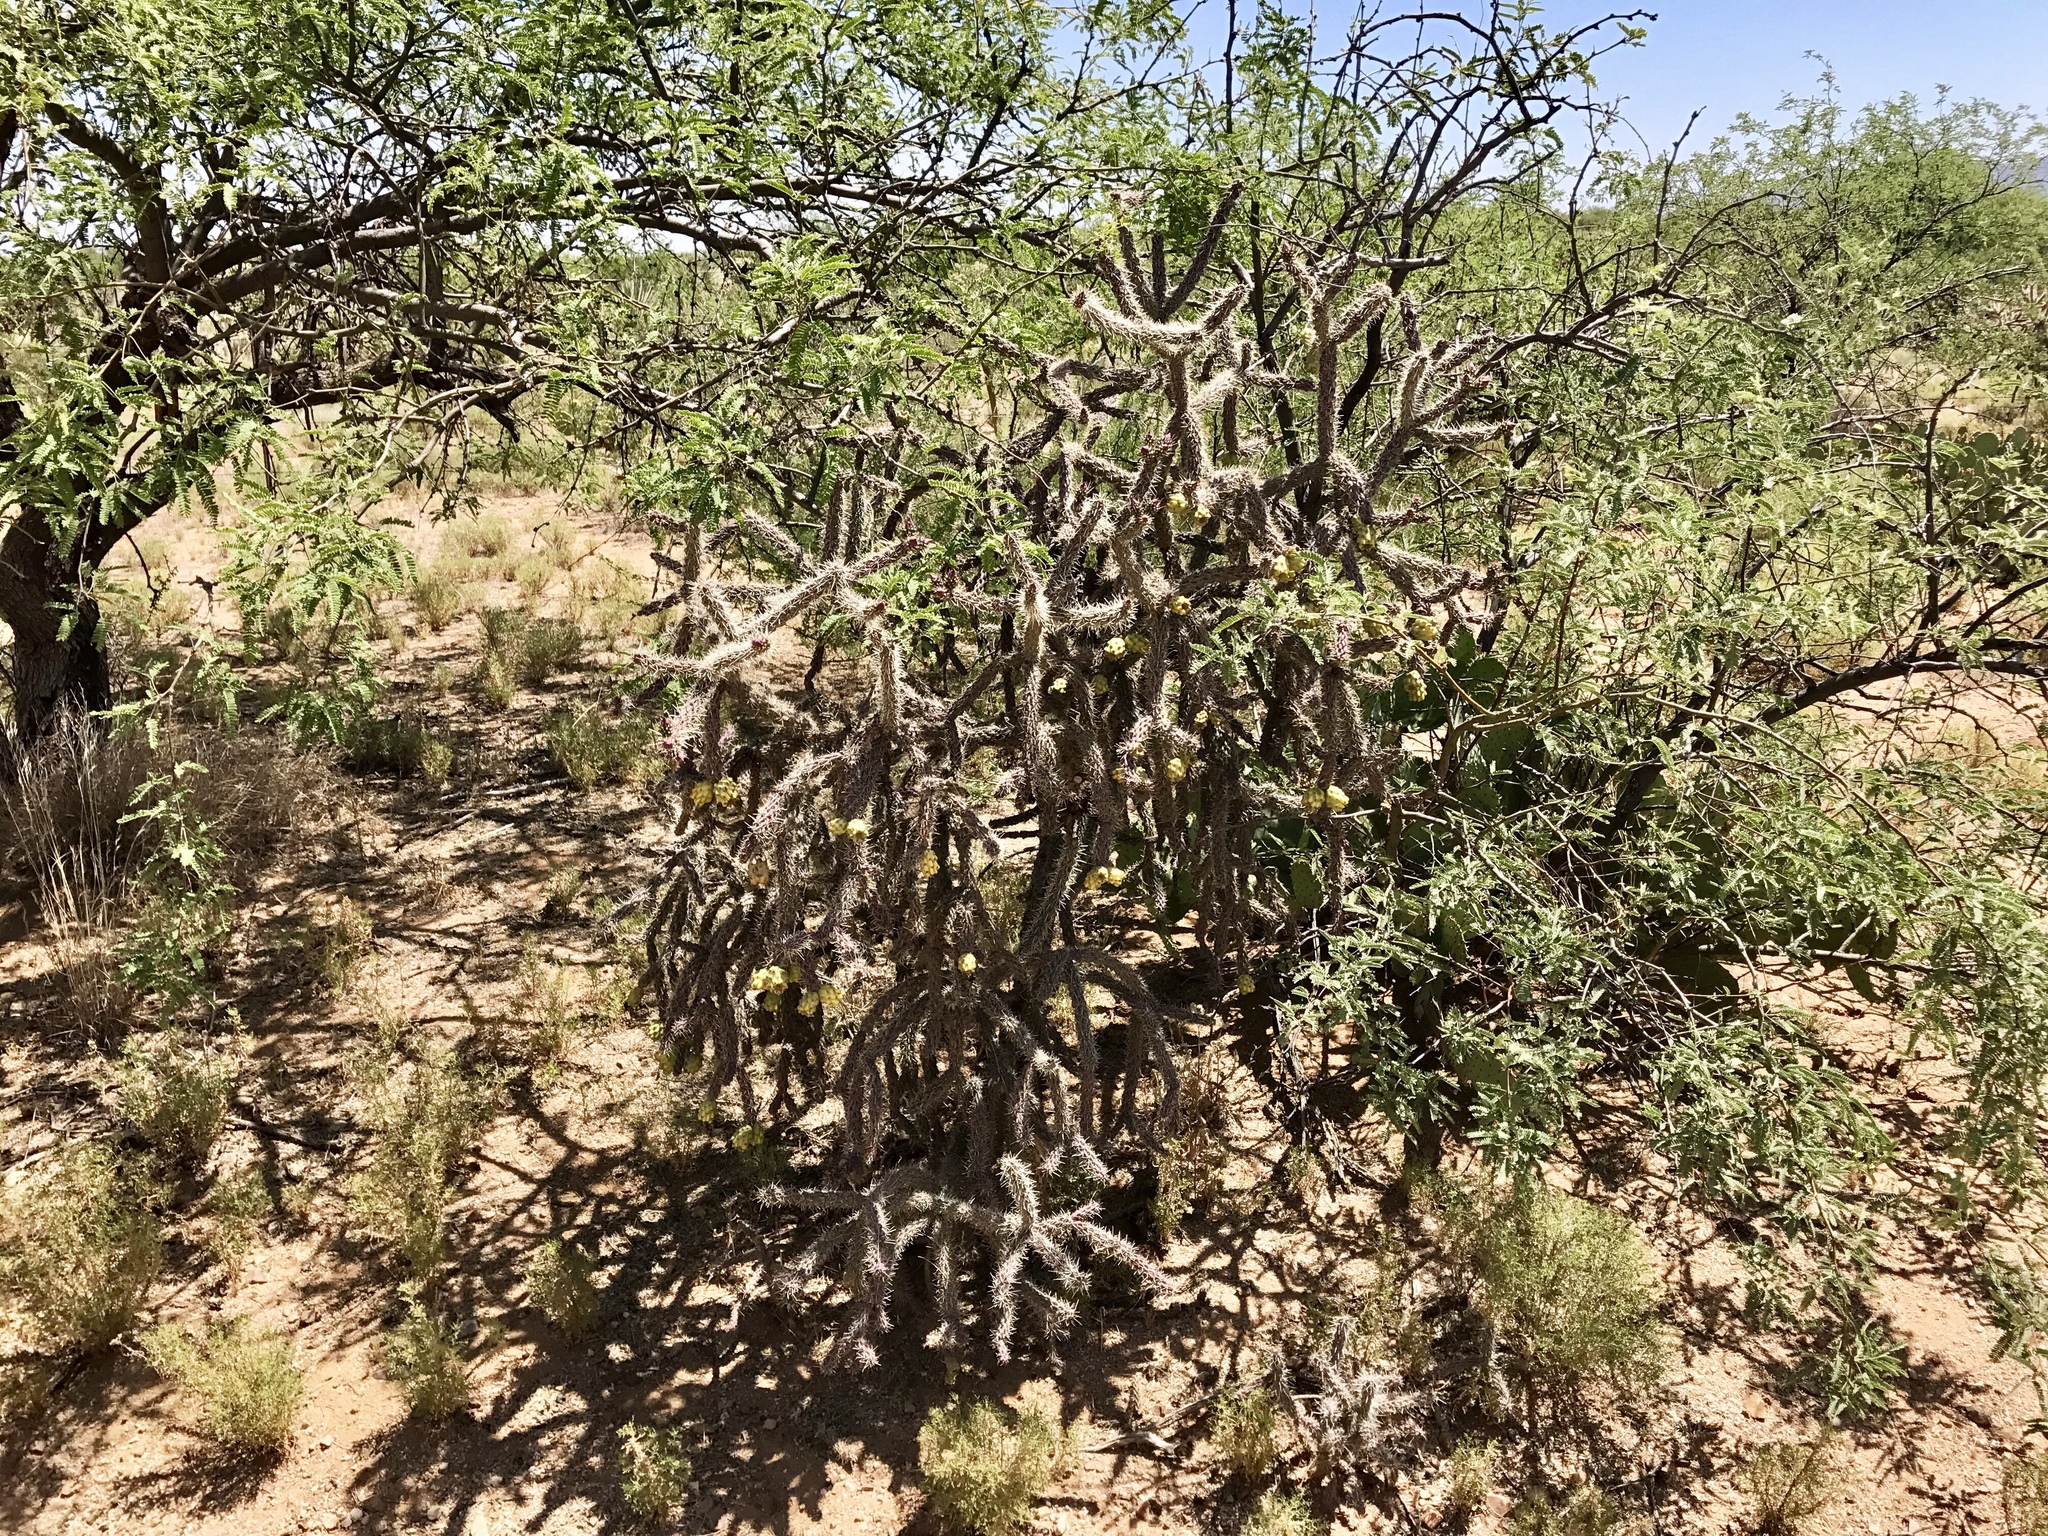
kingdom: Plantae
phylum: Tracheophyta
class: Magnoliopsida
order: Caryophyllales
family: Cactaceae
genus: Cylindropuntia
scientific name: Cylindropuntia thurberi
